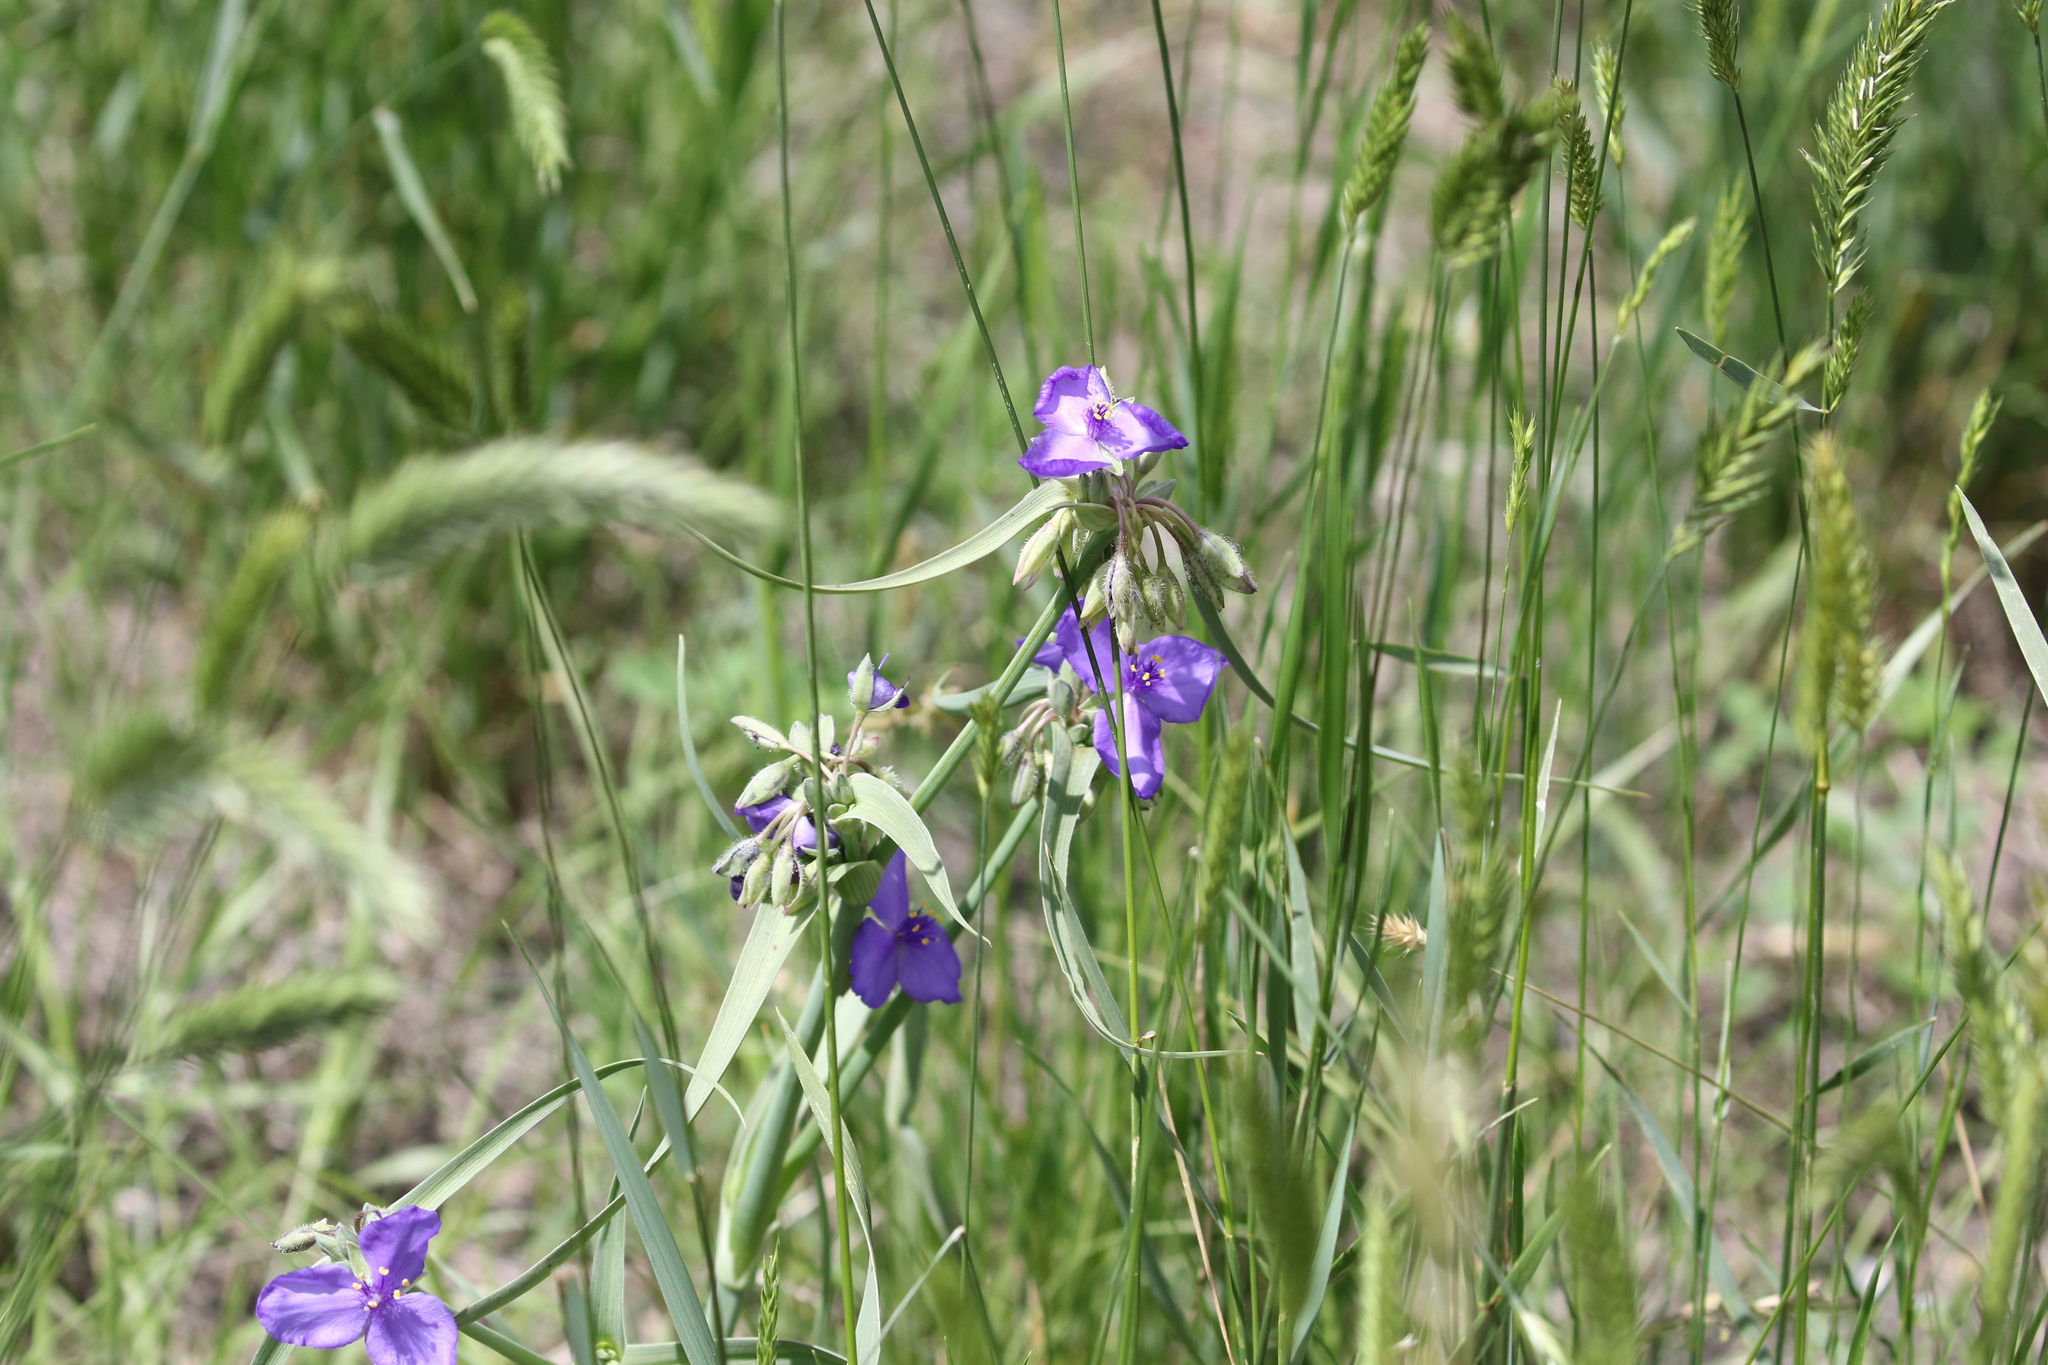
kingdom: Plantae
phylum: Tracheophyta
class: Liliopsida
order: Commelinales
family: Commelinaceae
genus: Tradescantia
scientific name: Tradescantia occidentalis
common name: Prairie spiderwort
